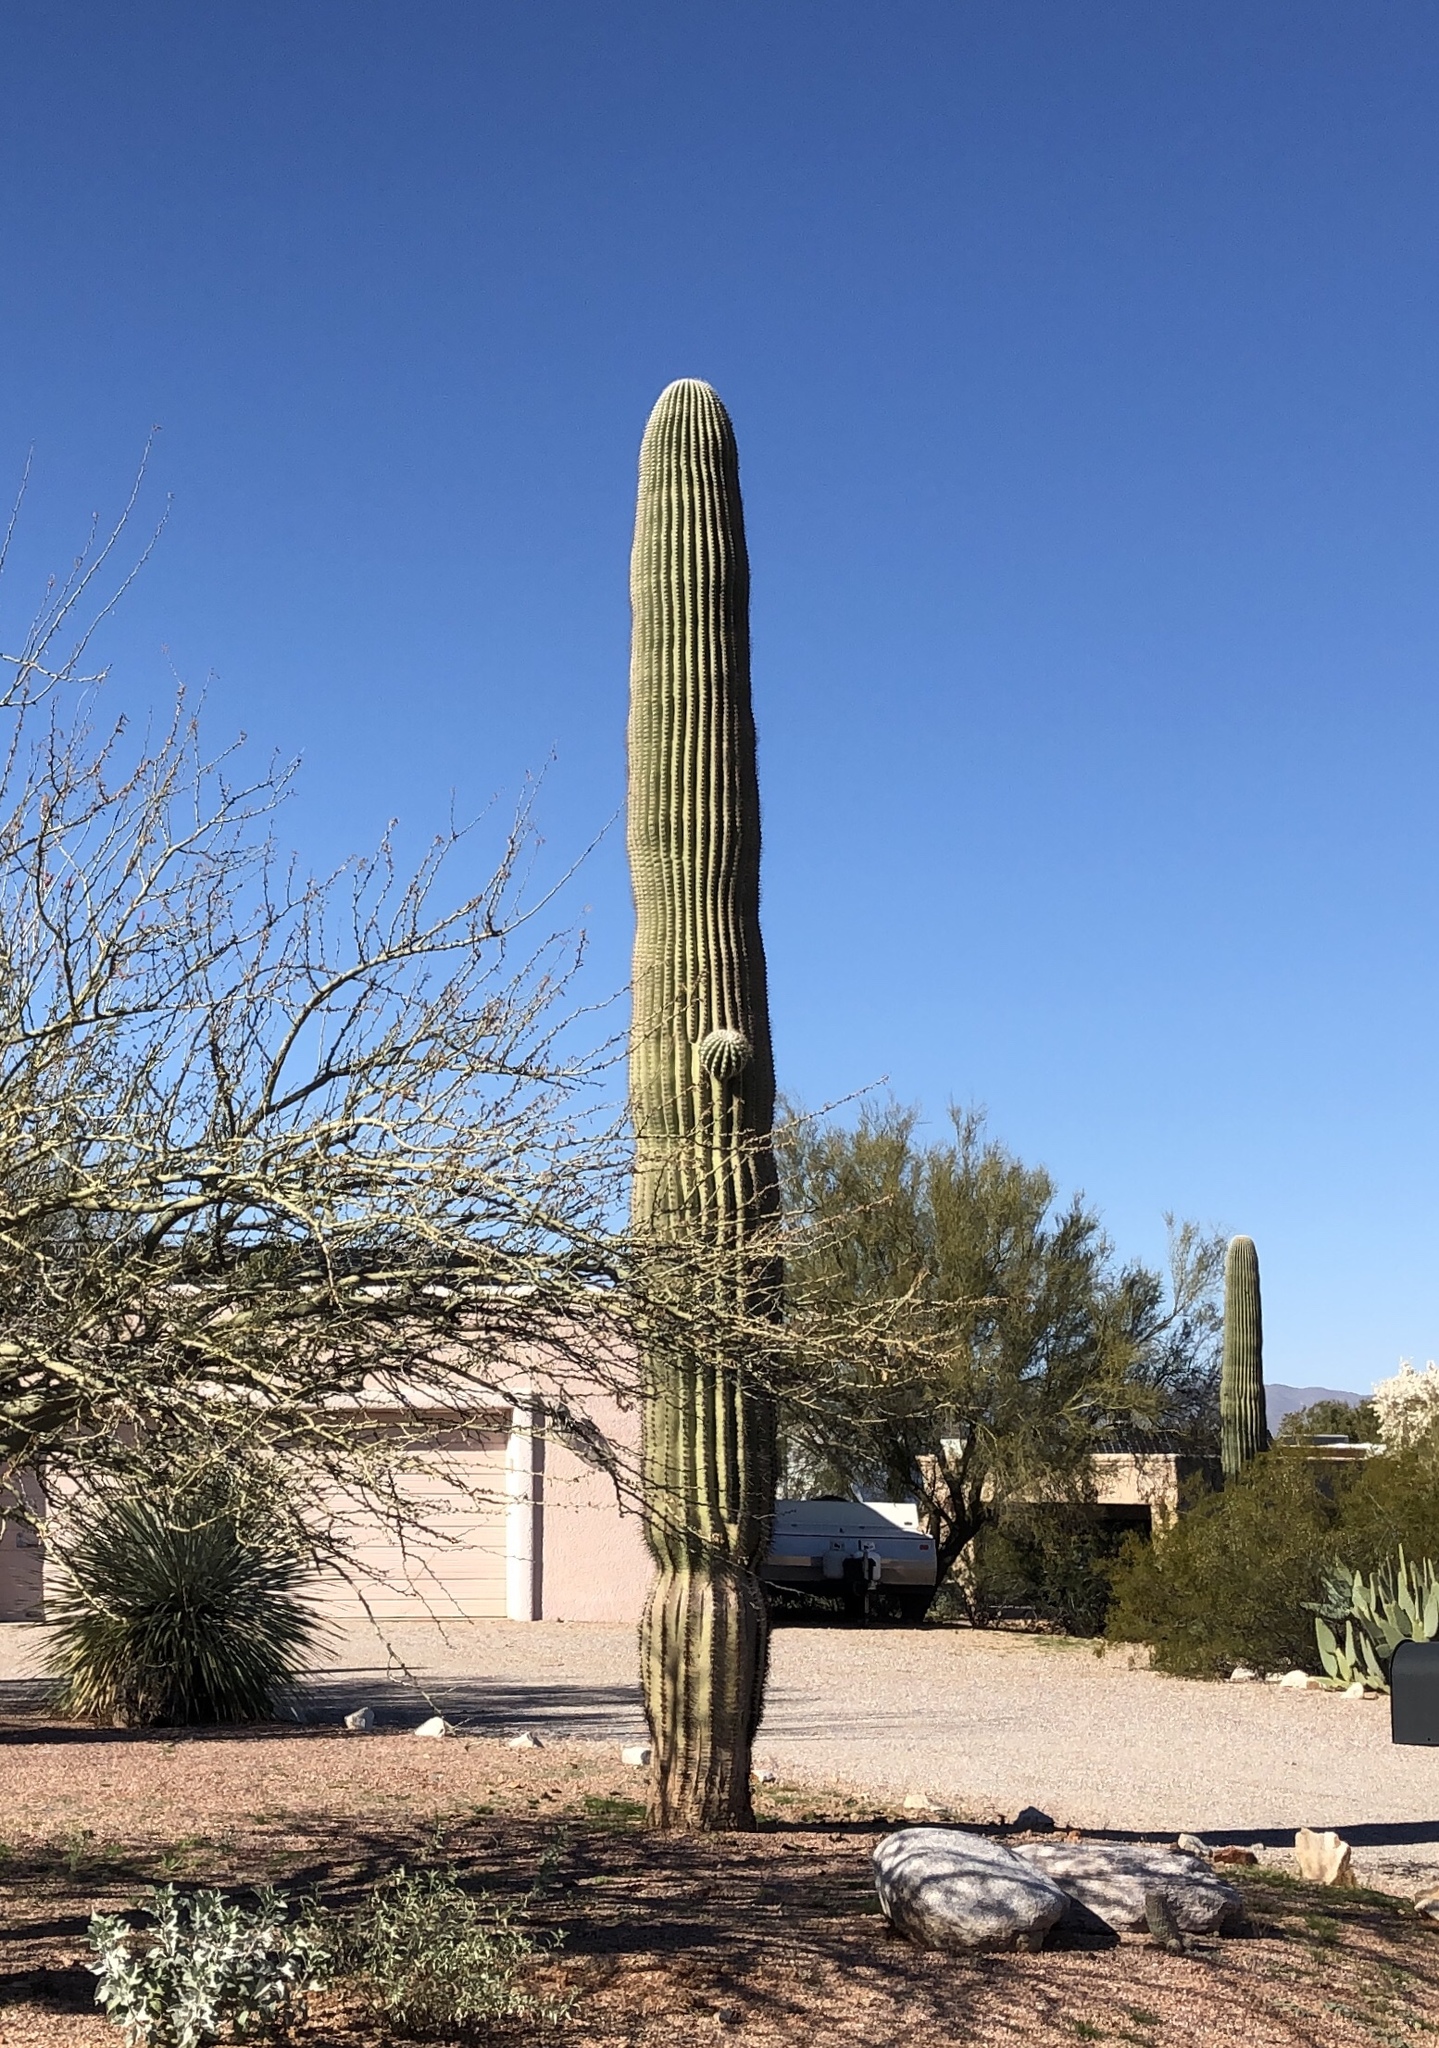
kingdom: Plantae
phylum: Tracheophyta
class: Magnoliopsida
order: Caryophyllales
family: Cactaceae
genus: Carnegiea
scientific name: Carnegiea gigantea
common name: Saguaro
